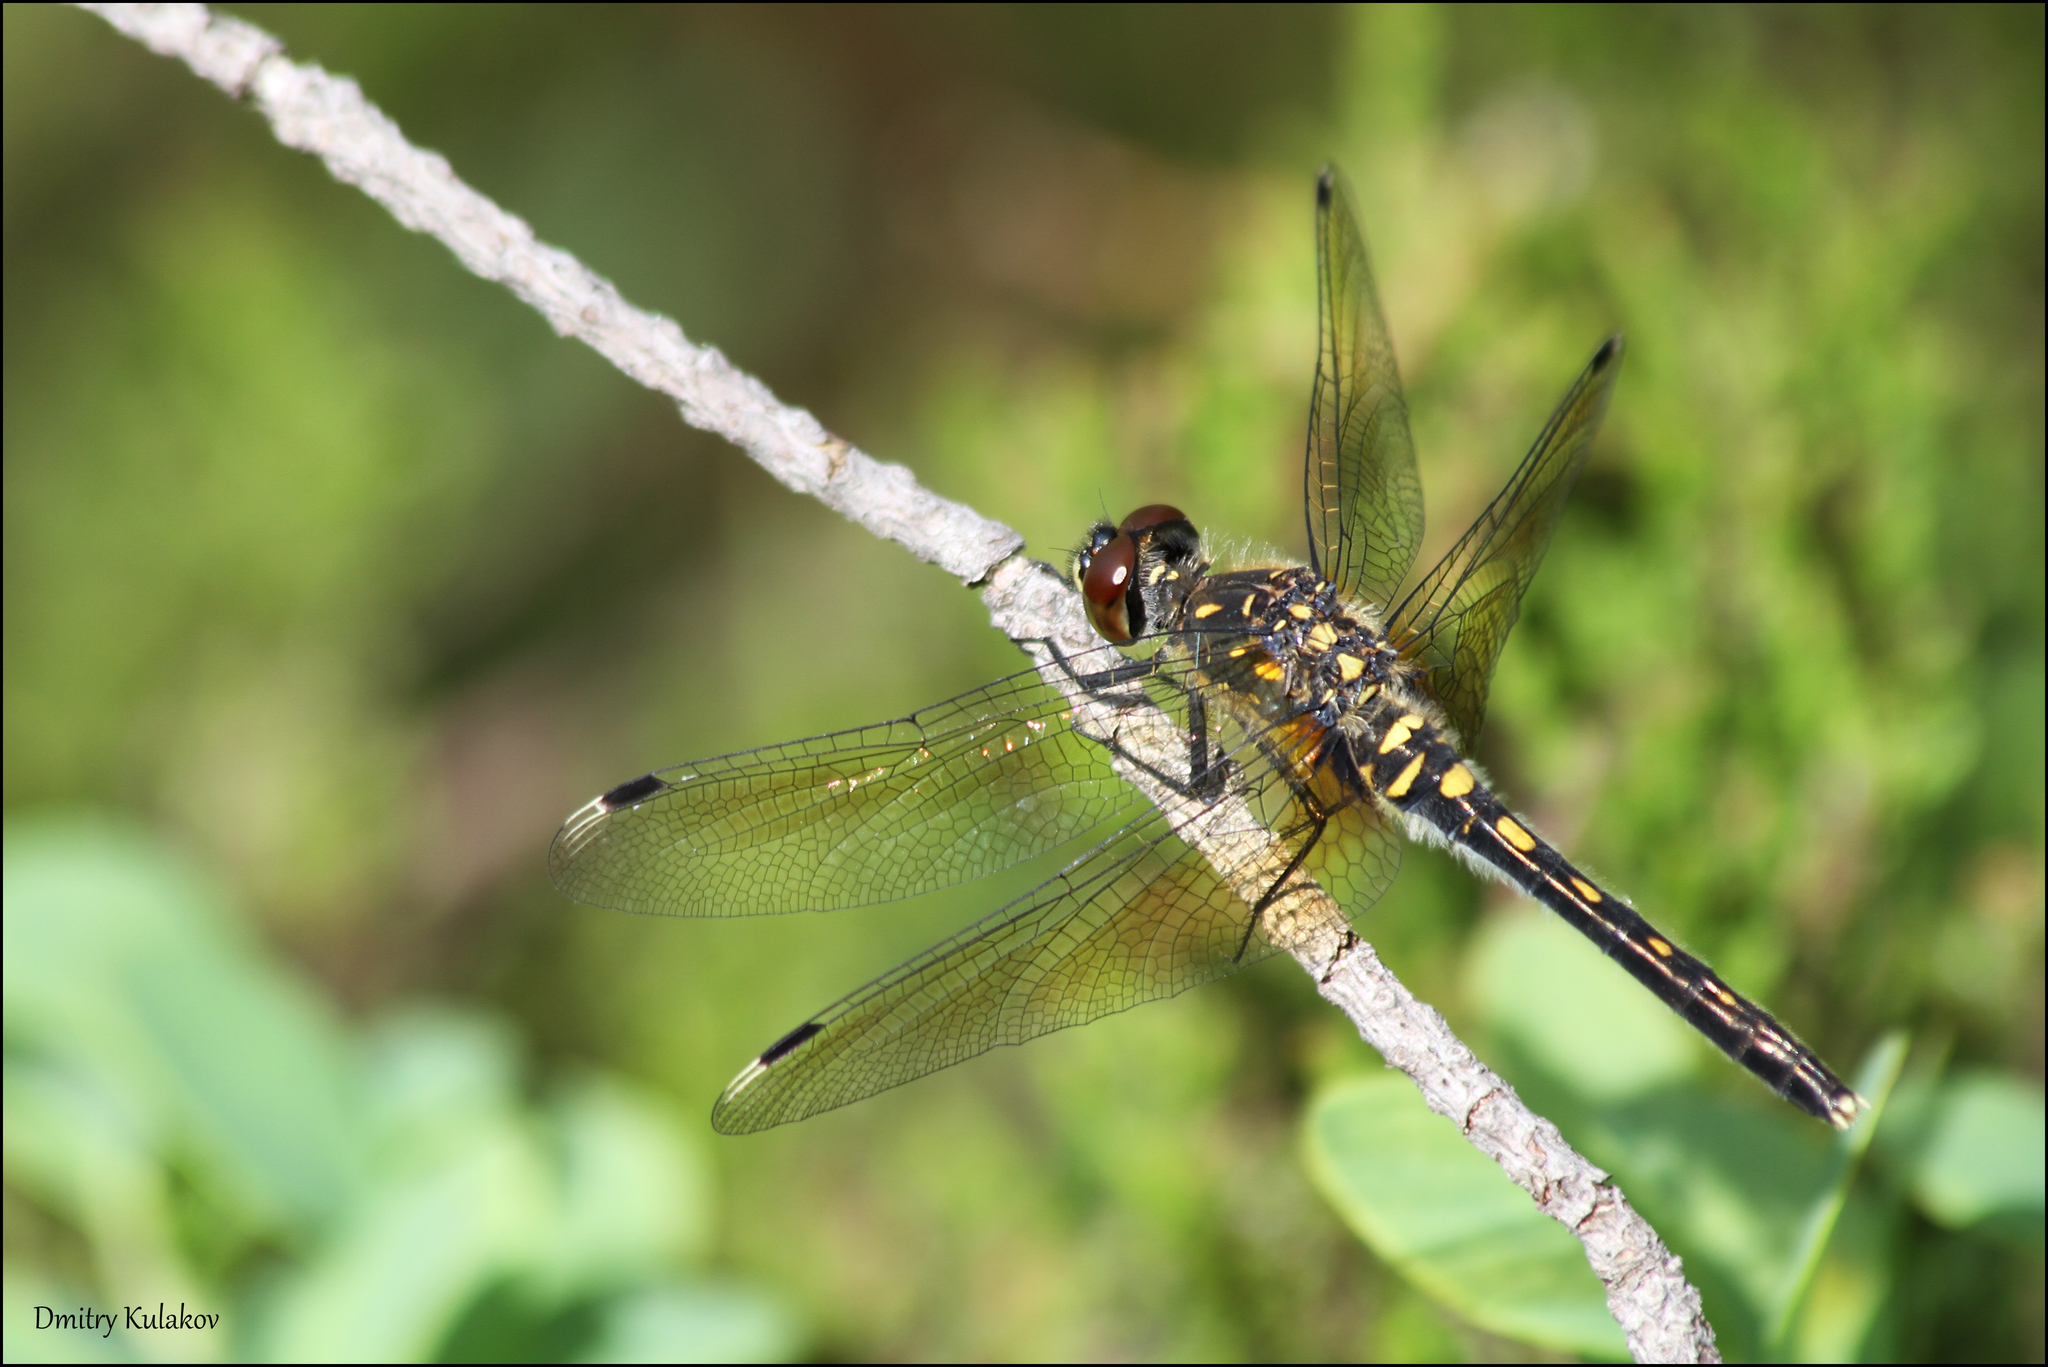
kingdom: Animalia
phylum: Arthropoda
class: Insecta
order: Odonata
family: Libellulidae
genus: Leucorrhinia
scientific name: Leucorrhinia albifrons
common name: Dark whiteface
